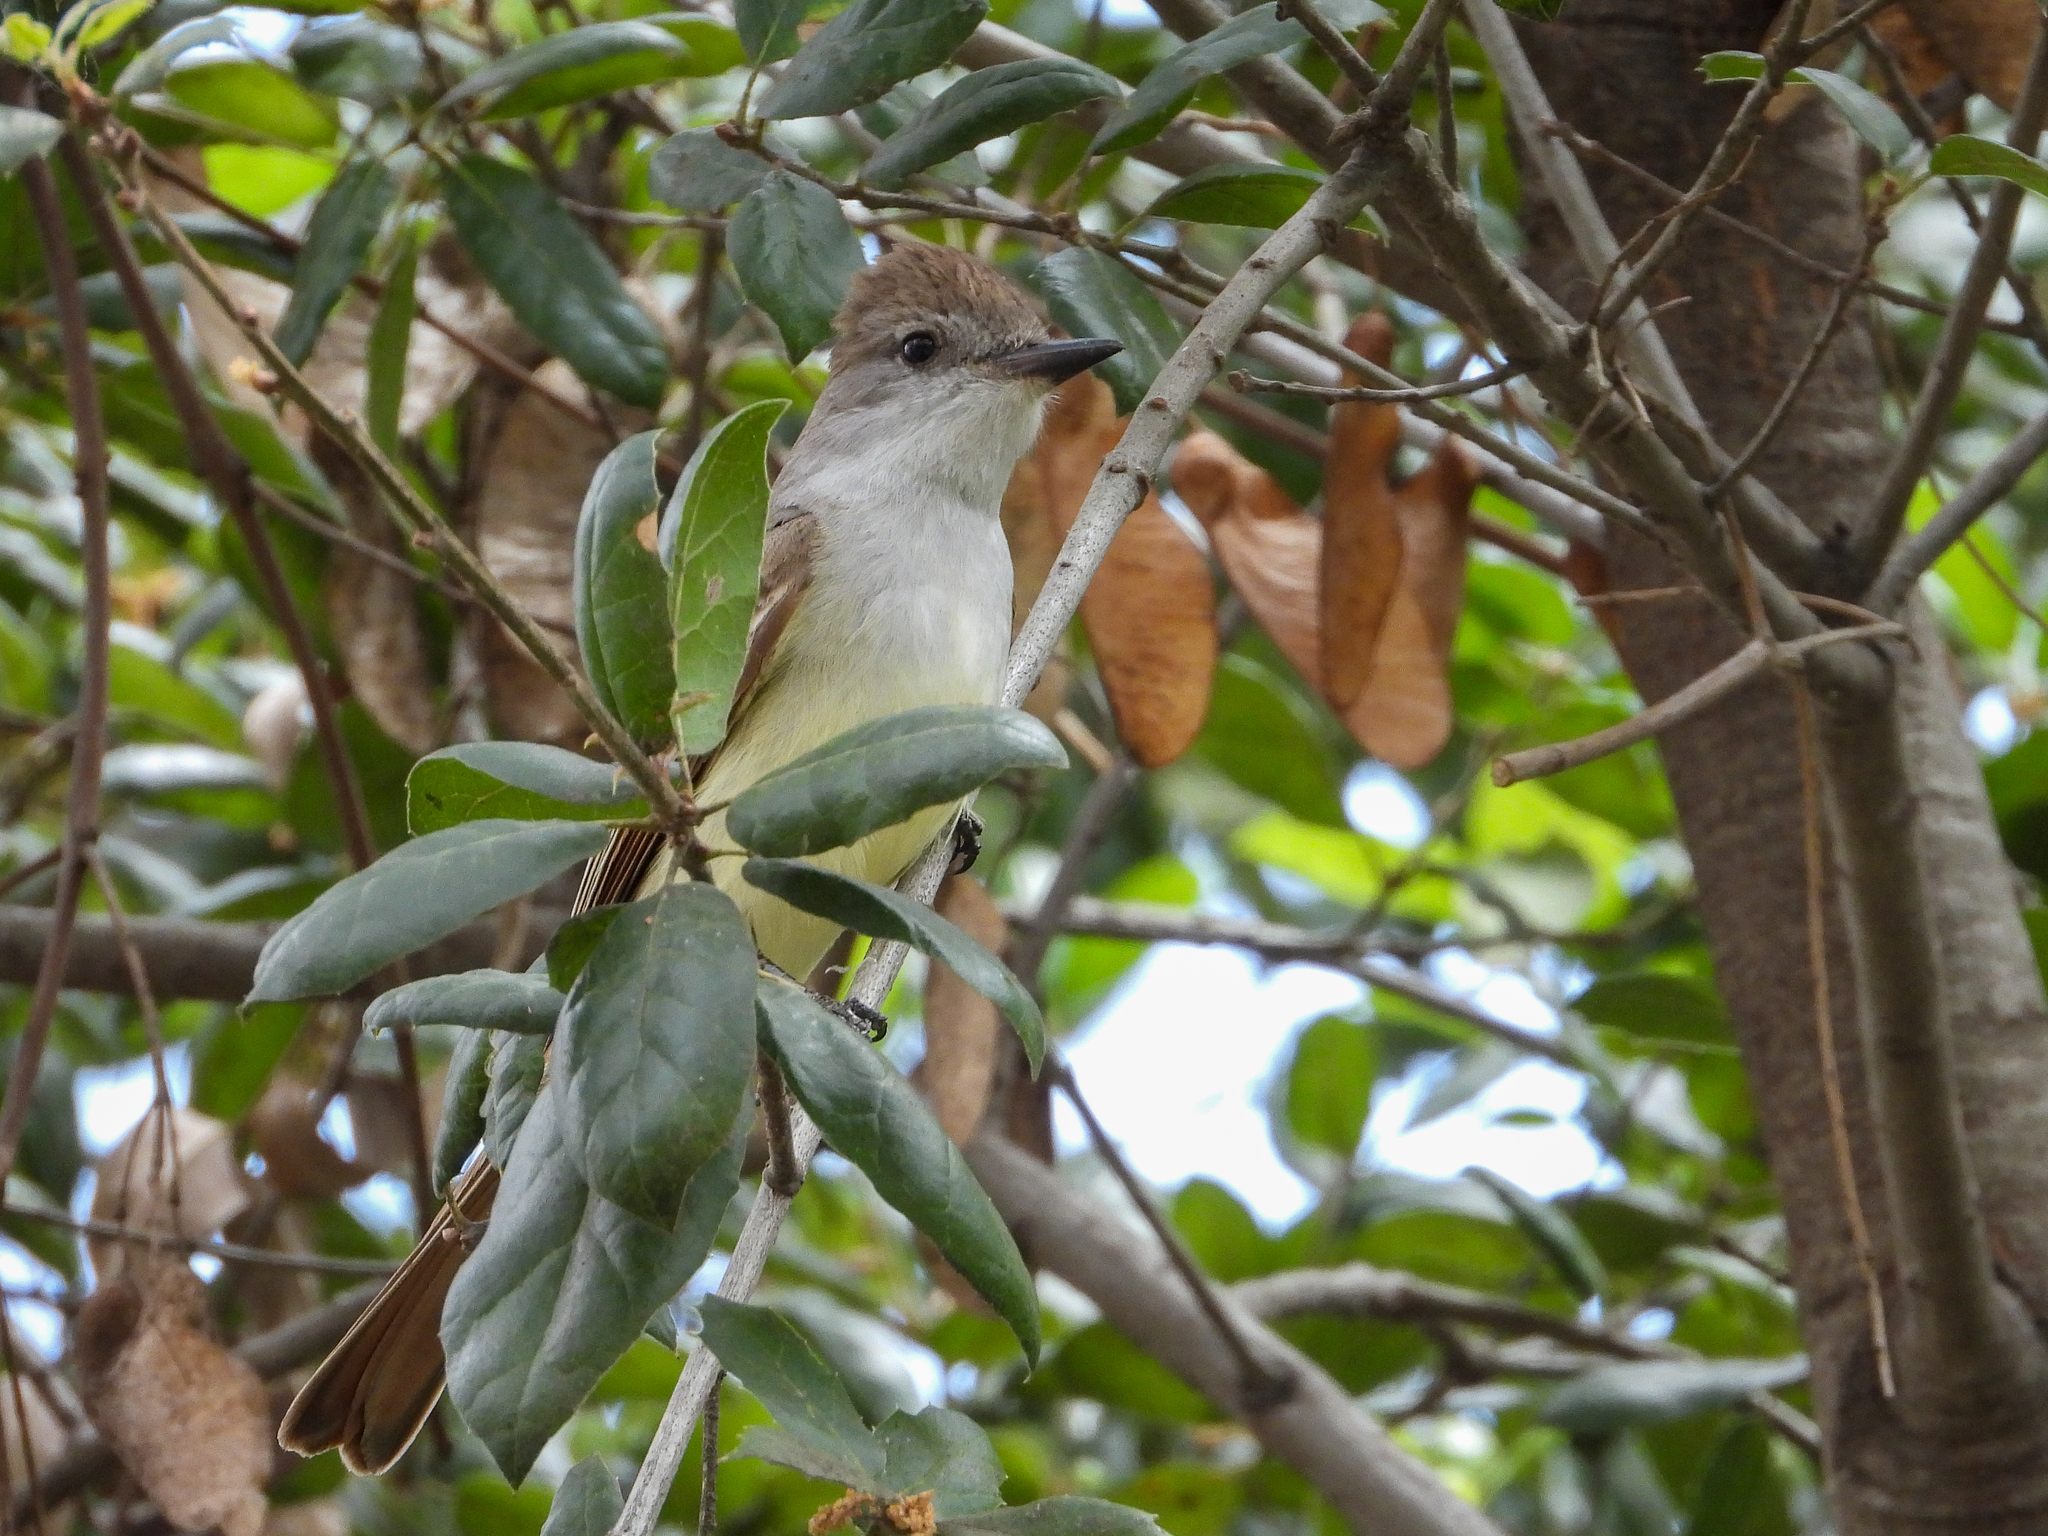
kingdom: Animalia
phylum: Chordata
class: Aves
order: Passeriformes
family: Tyrannidae
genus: Myiarchus
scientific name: Myiarchus cinerascens
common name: Ash-throated flycatcher
